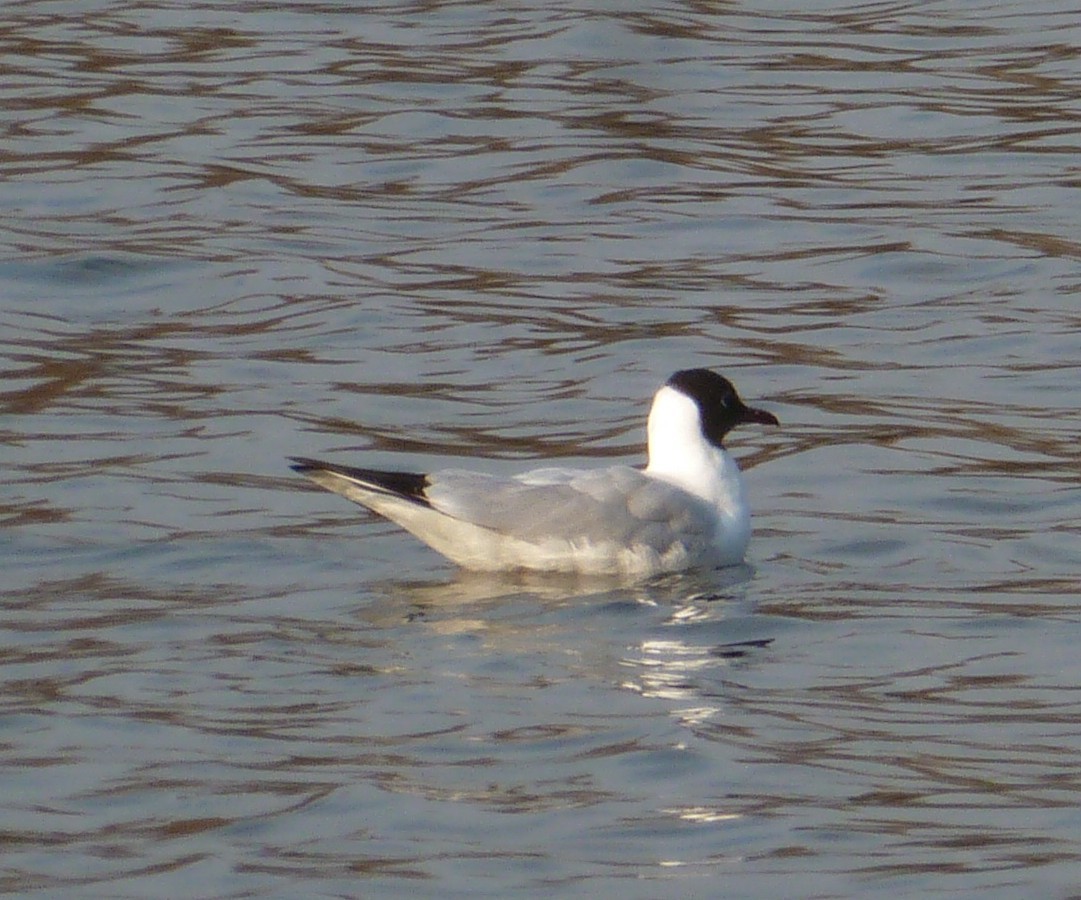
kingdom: Animalia
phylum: Chordata
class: Aves
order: Charadriiformes
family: Laridae
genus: Chroicocephalus
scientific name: Chroicocephalus ridibundus
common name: Black-headed gull
